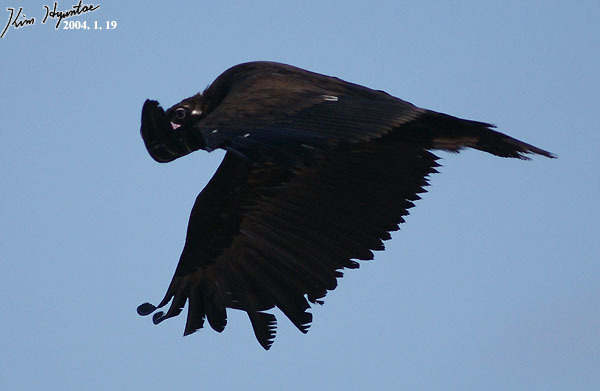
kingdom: Animalia
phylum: Chordata
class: Aves
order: Accipitriformes
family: Accipitridae
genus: Aegypius
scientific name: Aegypius monachus
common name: Cinereous vulture
